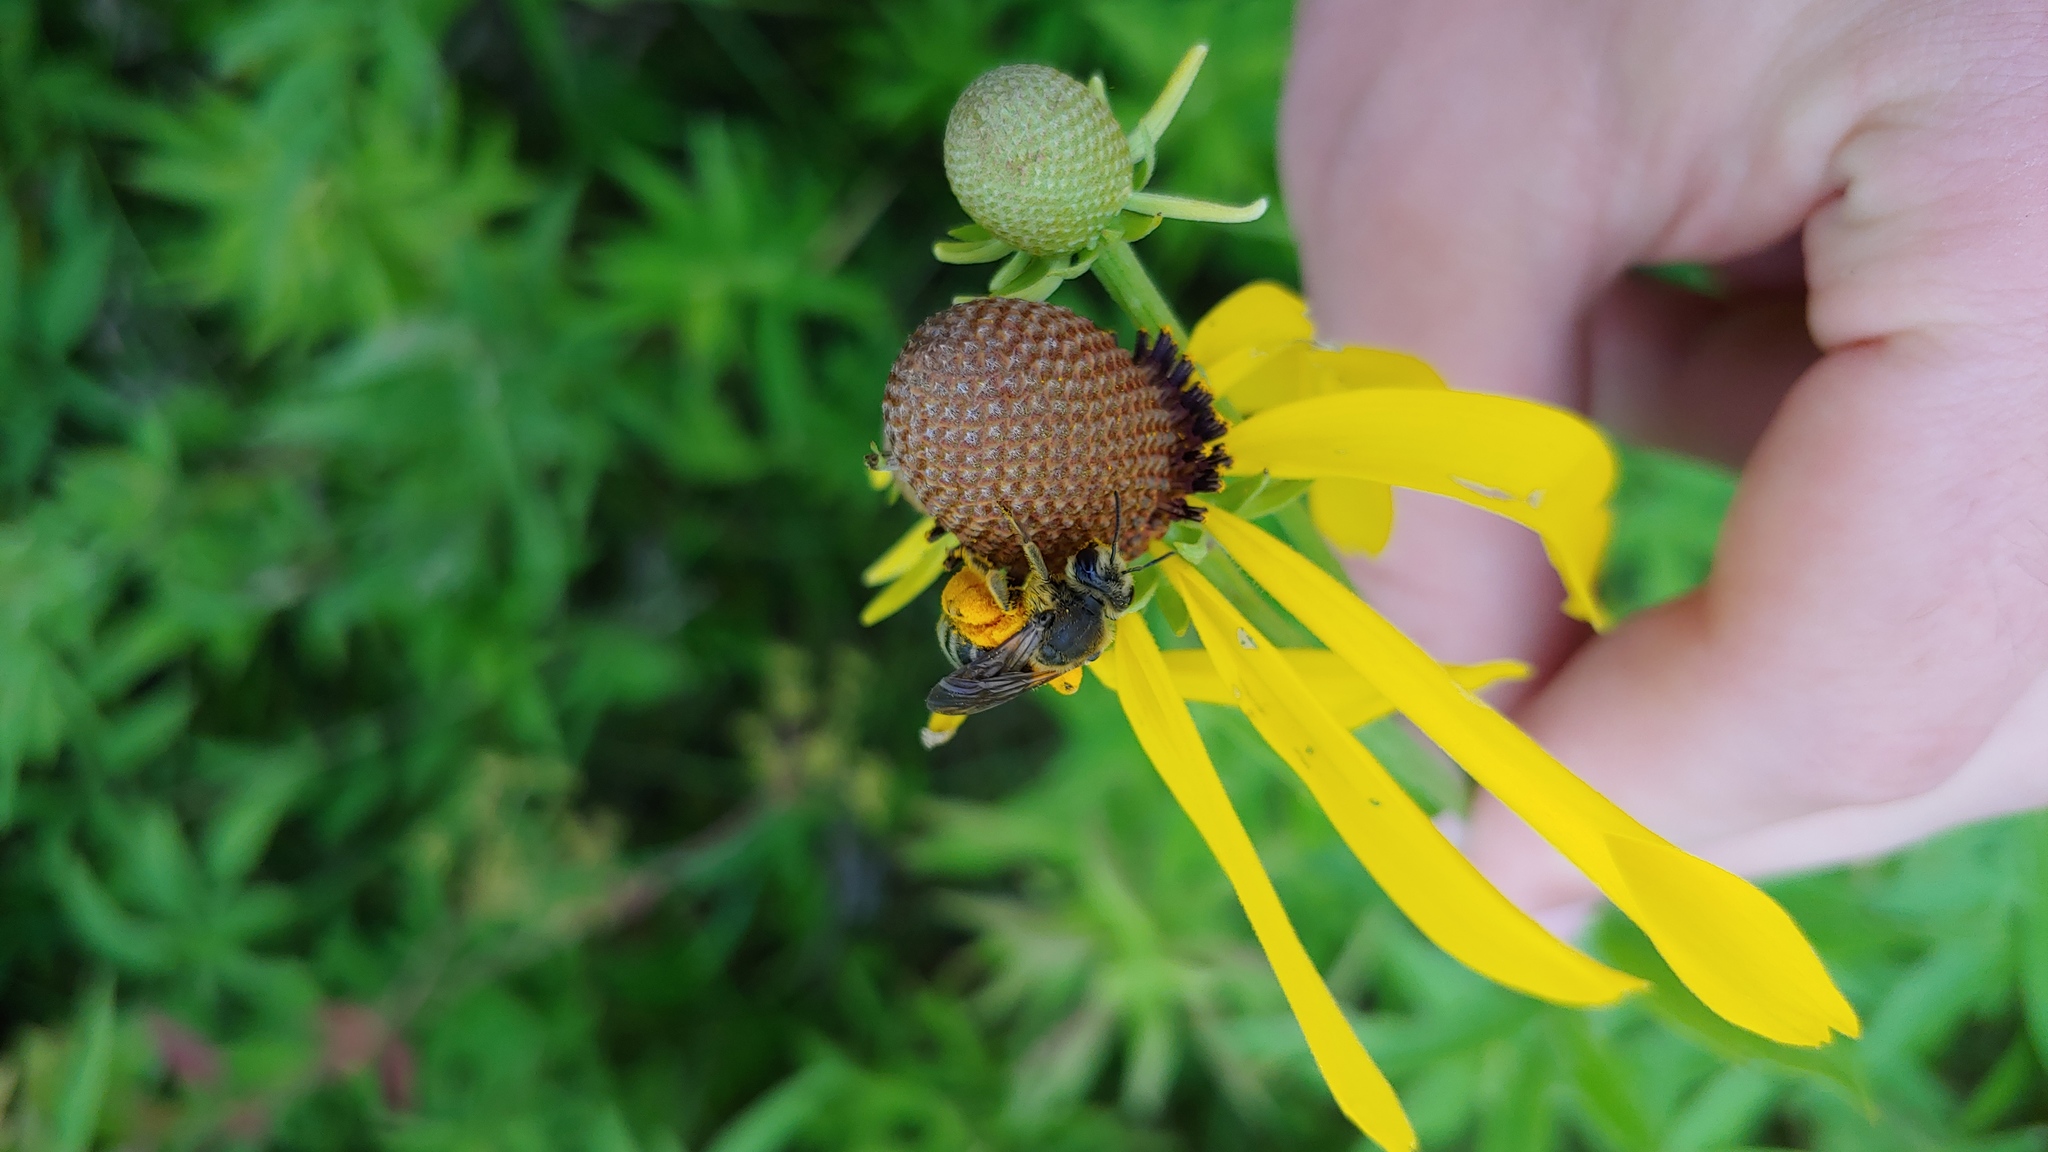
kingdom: Animalia
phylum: Arthropoda
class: Insecta
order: Hymenoptera
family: Andrenidae
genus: Andrena
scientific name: Andrena rudbeckiae
